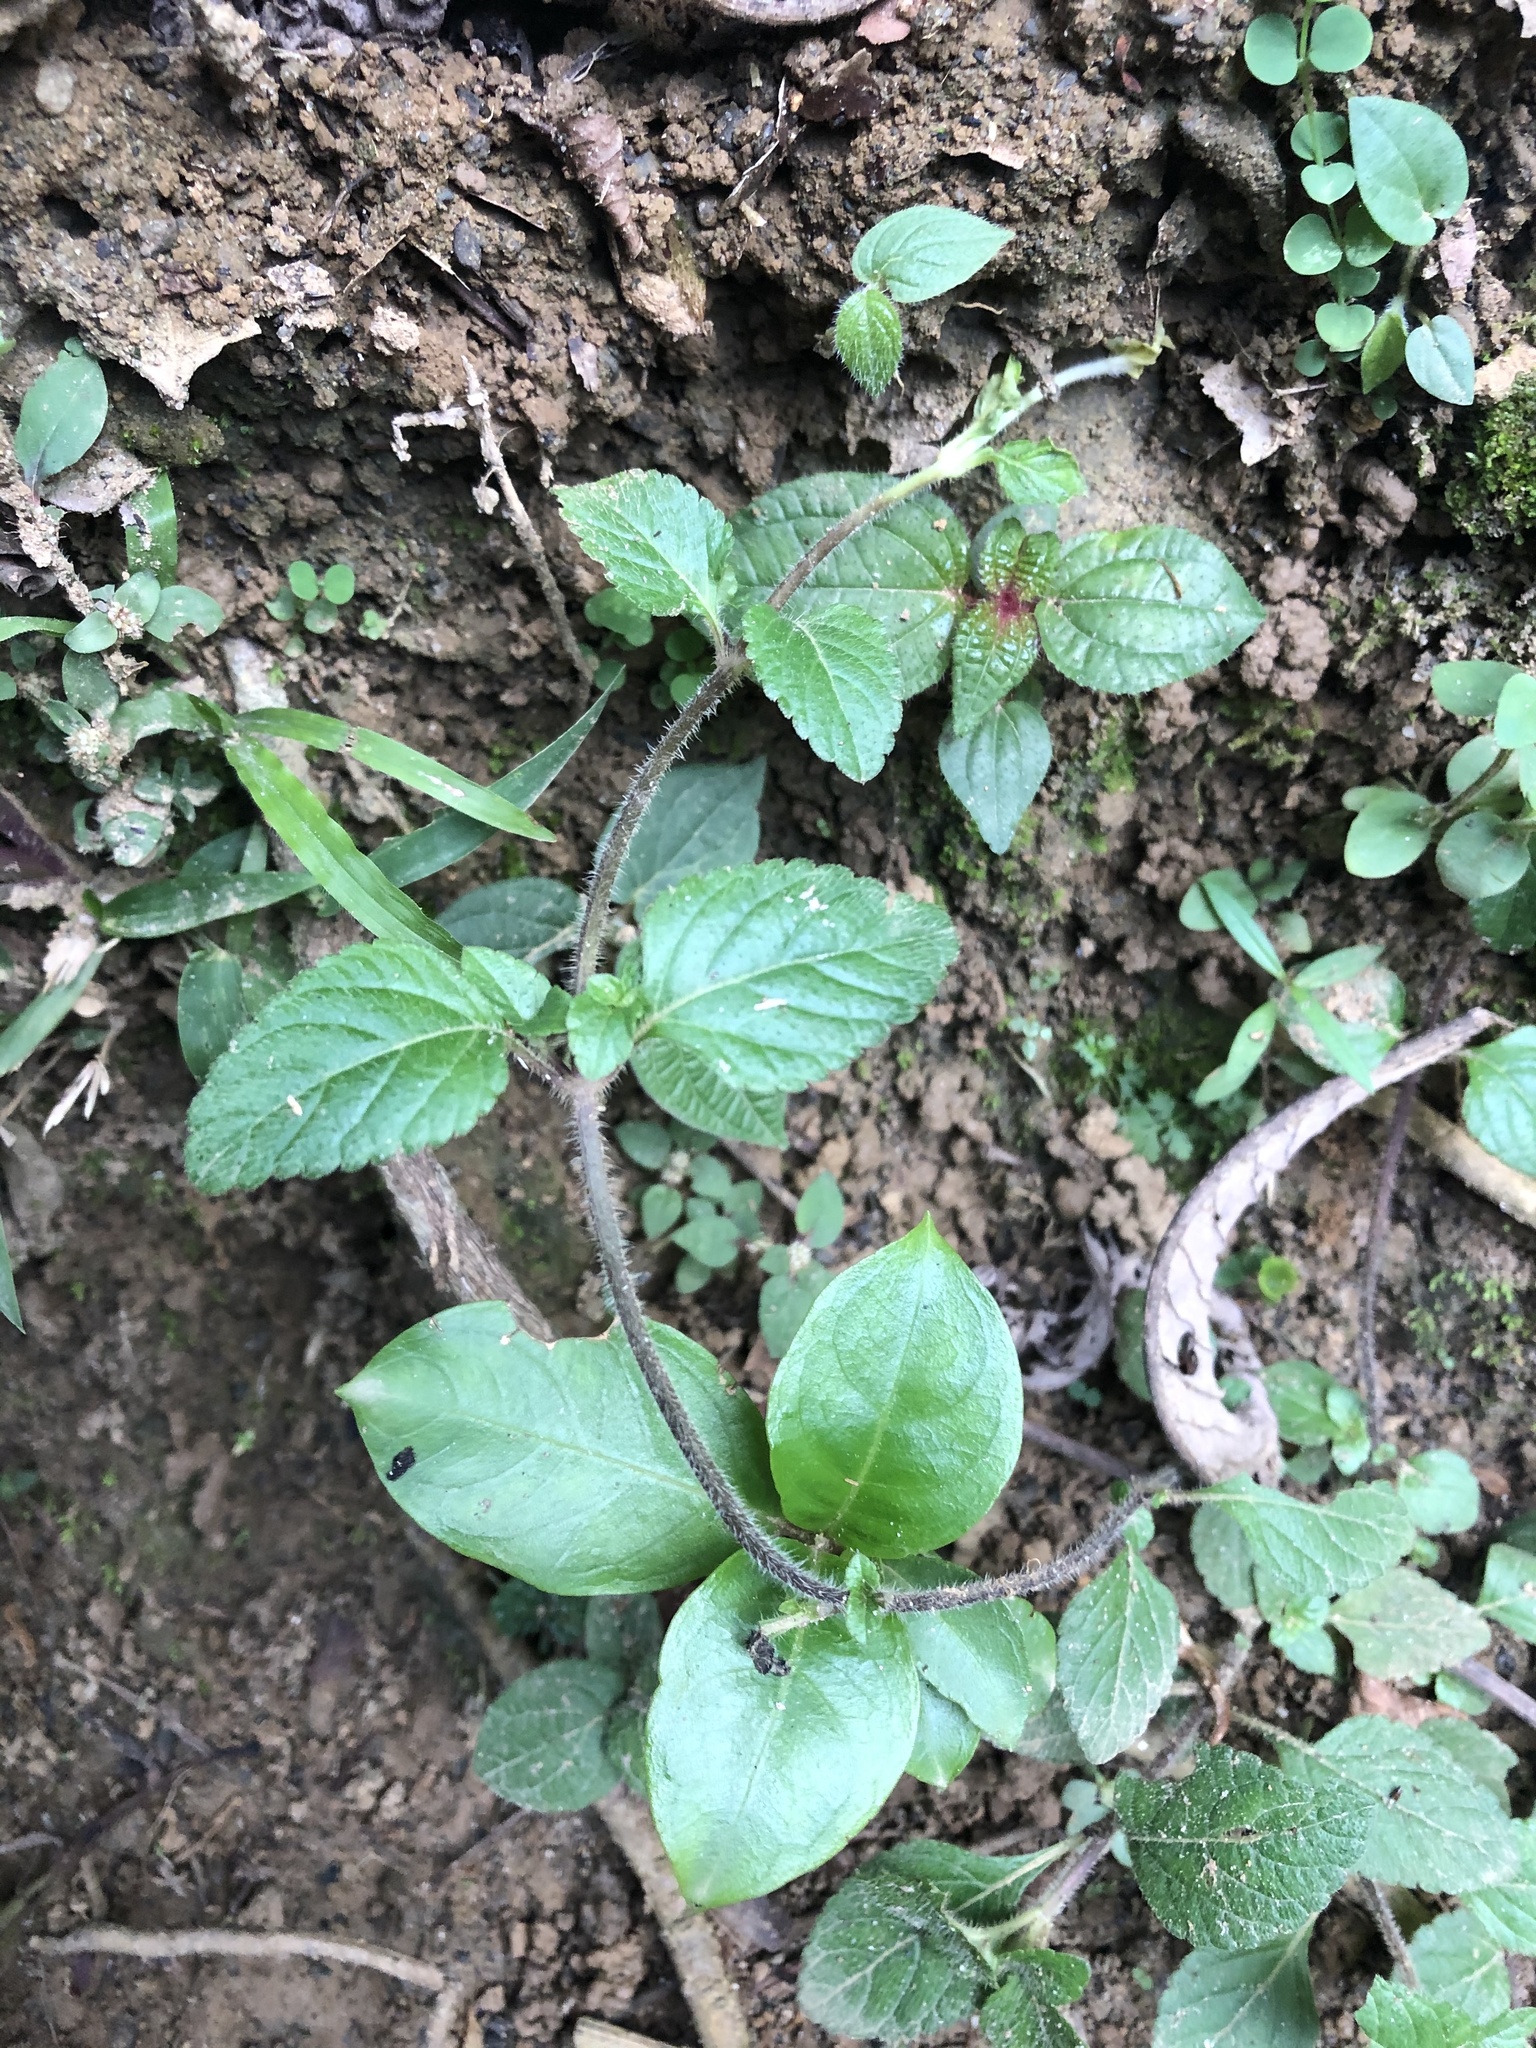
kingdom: Plantae
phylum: Tracheophyta
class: Magnoliopsida
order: Lamiales
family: Verbenaceae
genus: Stachytarpheta
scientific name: Stachytarpheta cayennensis
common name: Cayenne porterweed
